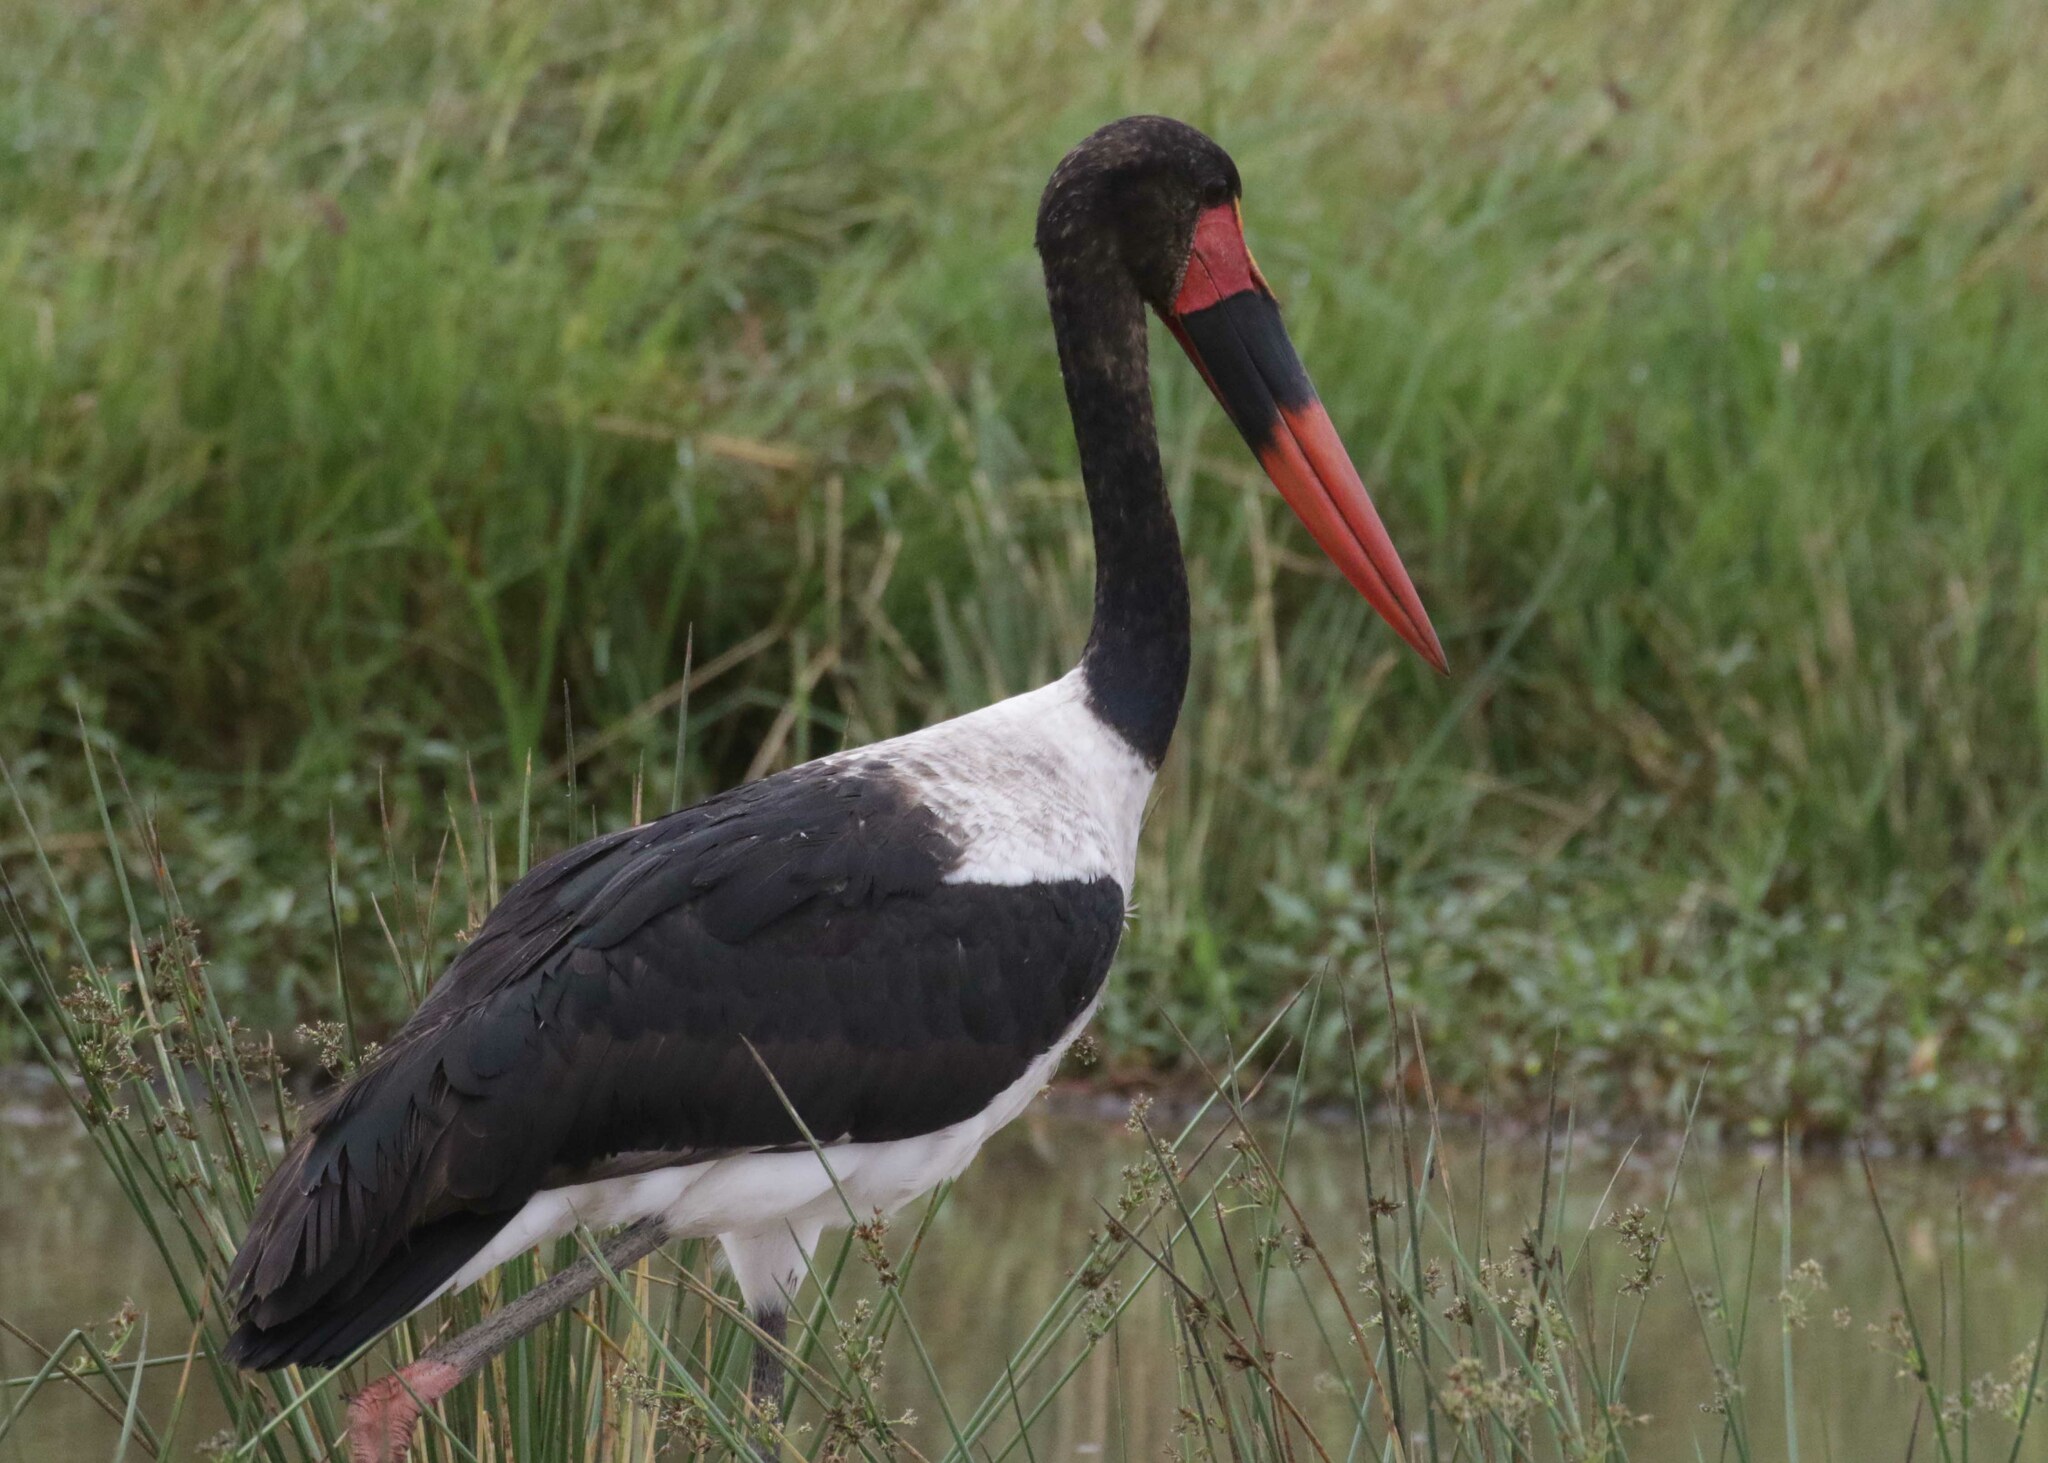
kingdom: Animalia
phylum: Chordata
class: Aves
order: Ciconiiformes
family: Ciconiidae
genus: Ephippiorhynchus
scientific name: Ephippiorhynchus senegalensis
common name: Saddle-billed stork
